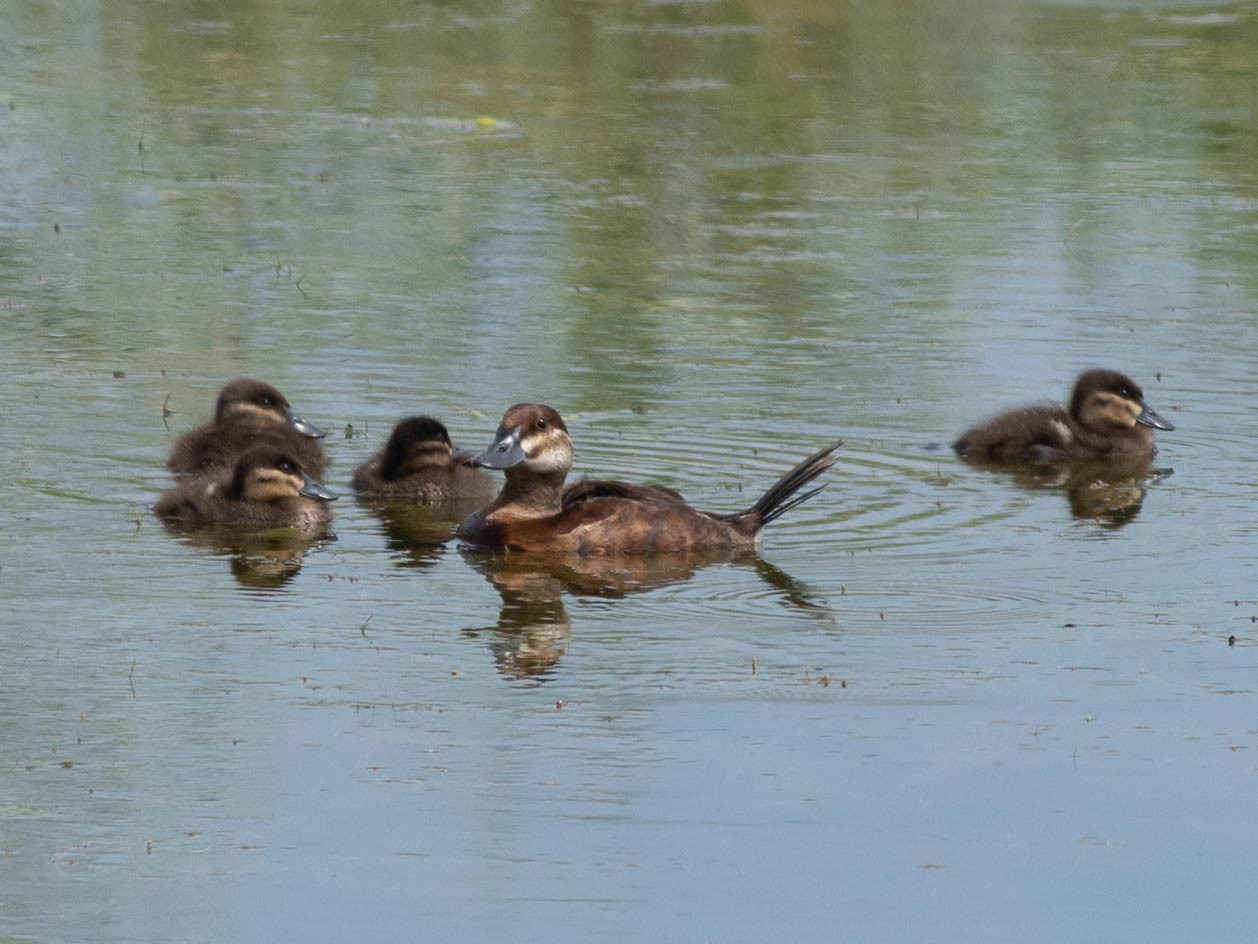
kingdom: Animalia
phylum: Chordata
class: Aves
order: Anseriformes
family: Anatidae
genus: Oxyura
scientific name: Oxyura jamaicensis
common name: Ruddy duck
